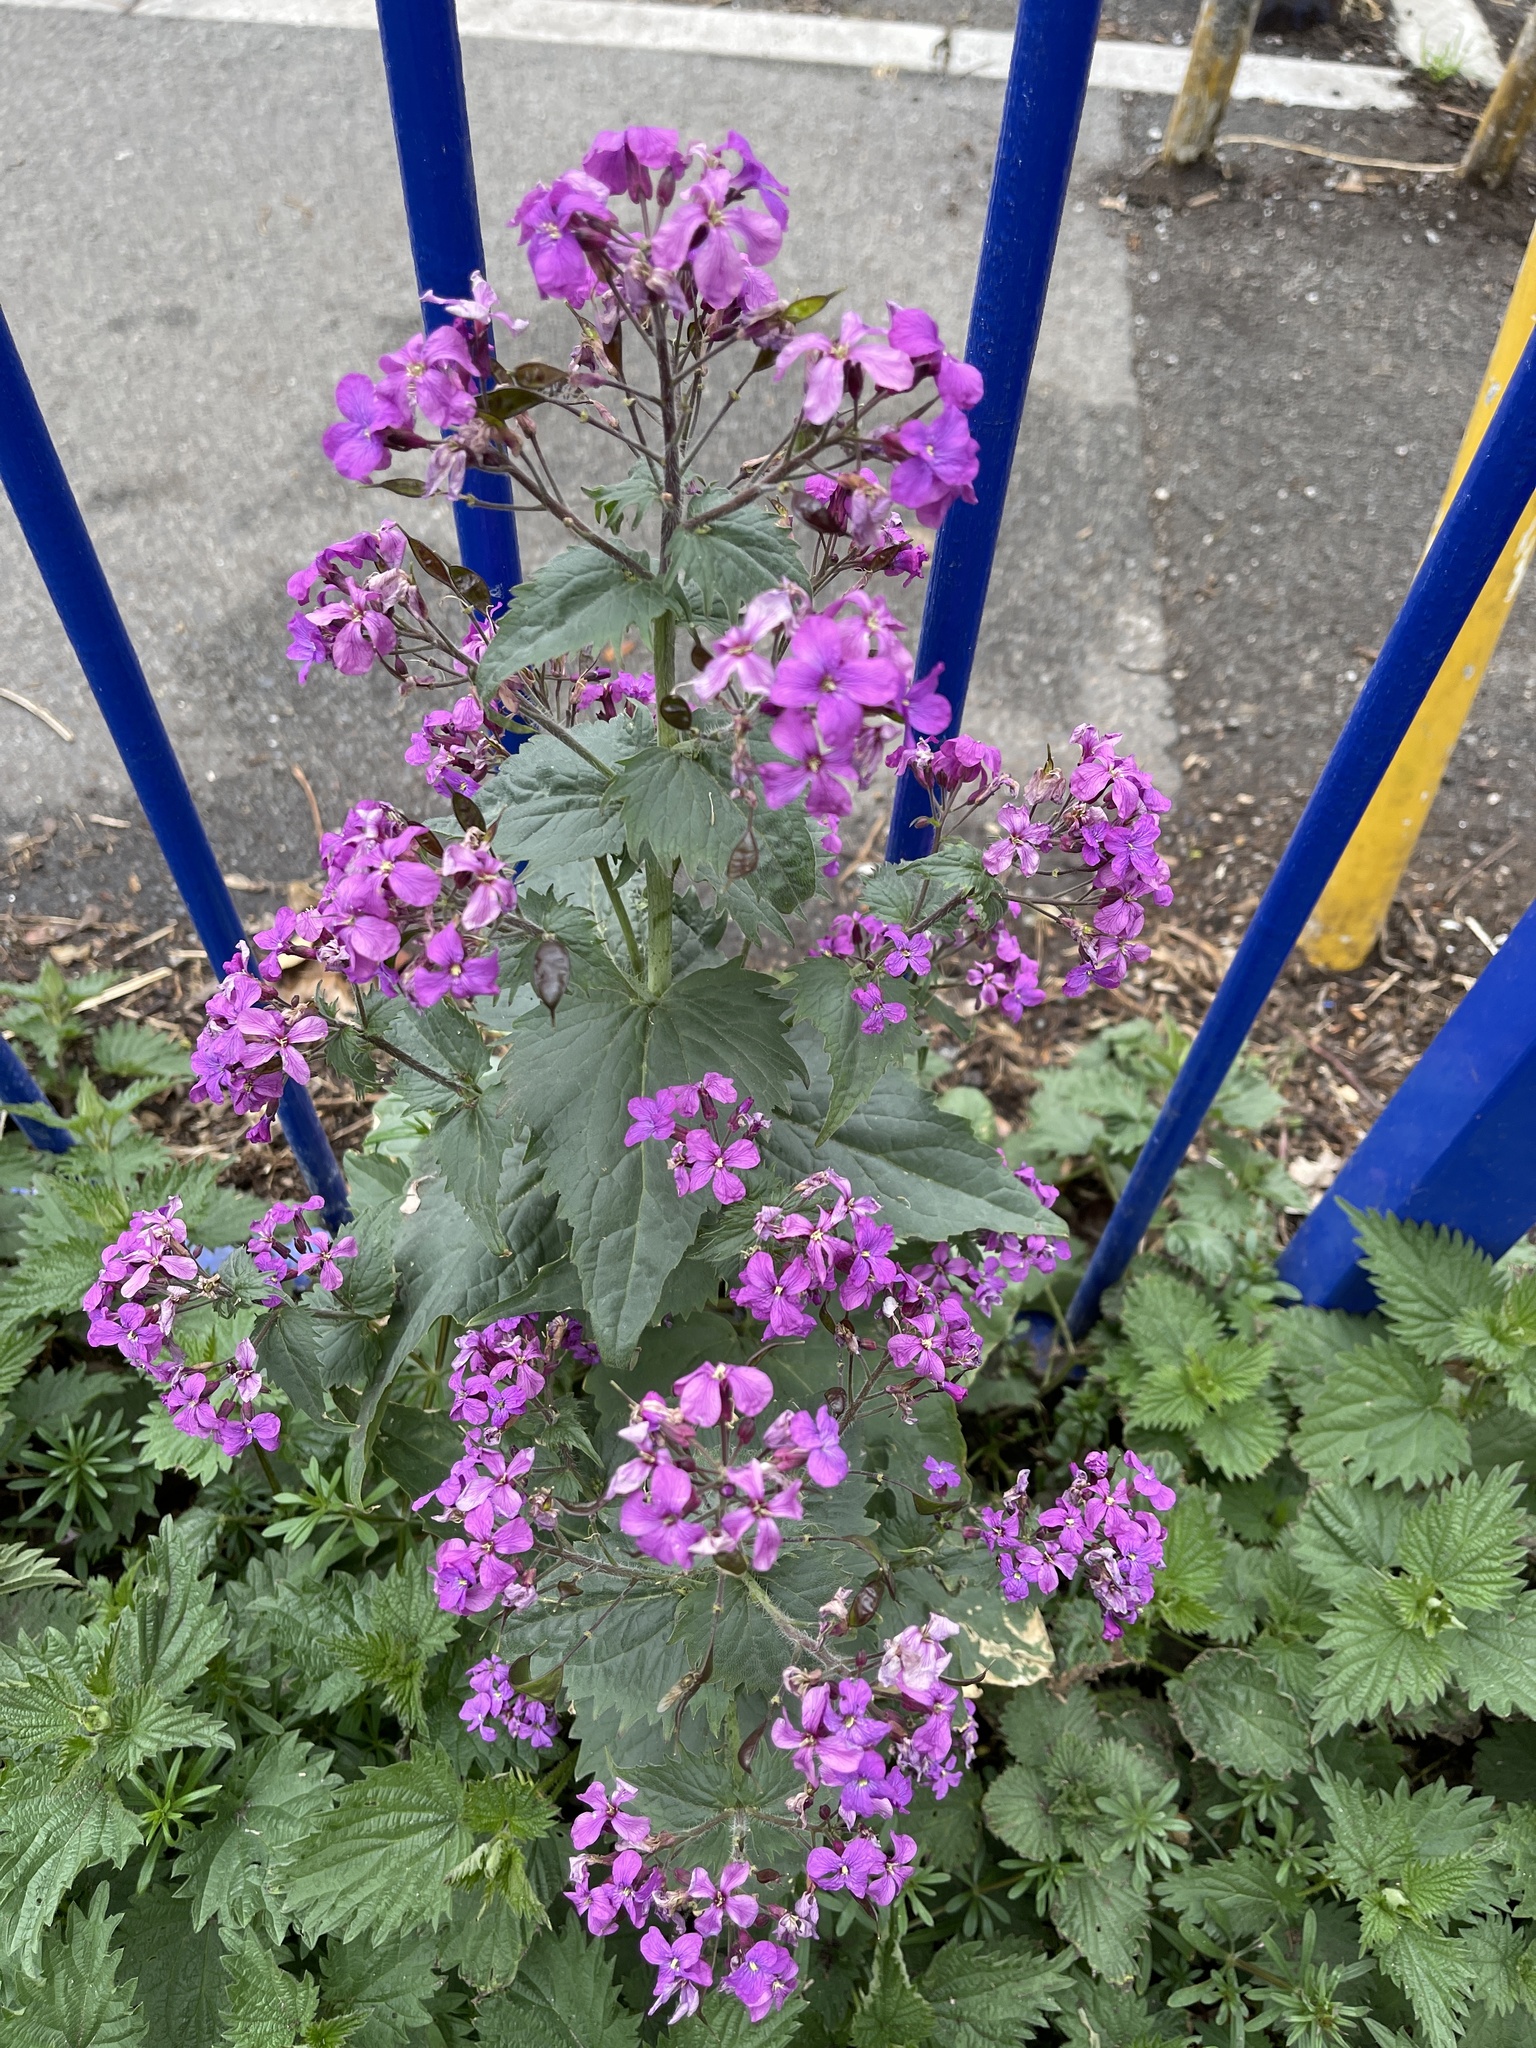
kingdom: Plantae
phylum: Tracheophyta
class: Magnoliopsida
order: Brassicales
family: Brassicaceae
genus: Lunaria
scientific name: Lunaria annua
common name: Honesty
